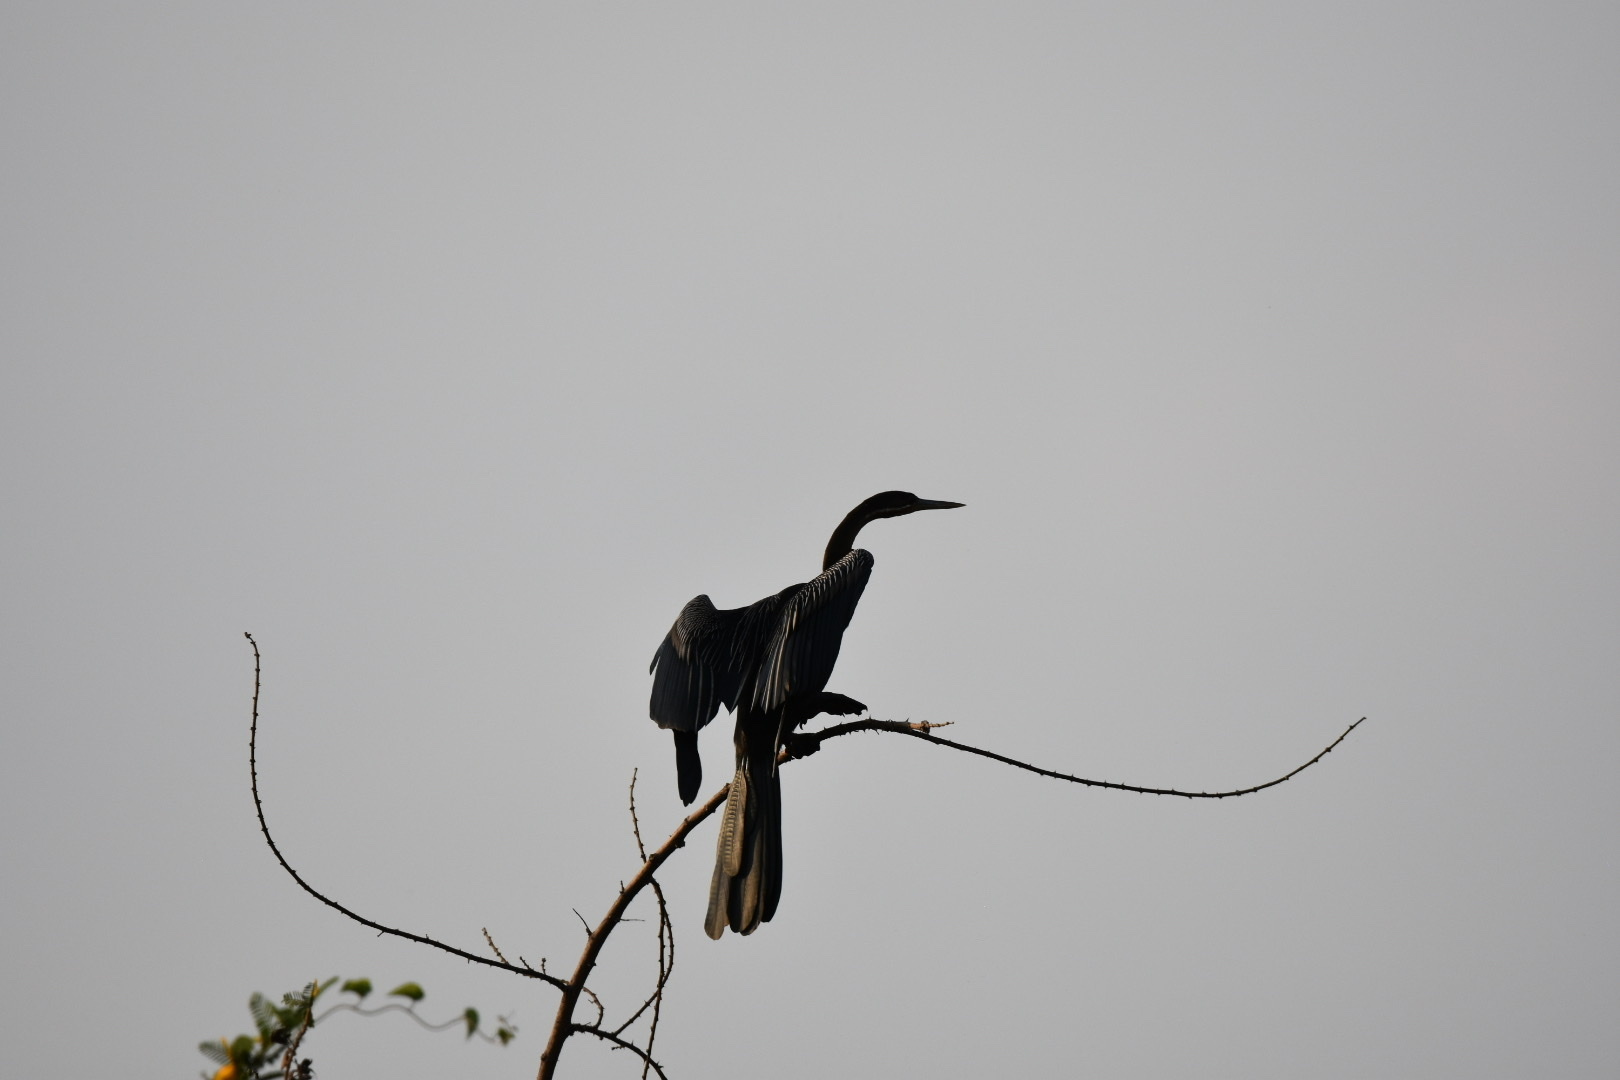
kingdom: Animalia
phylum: Chordata
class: Aves
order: Suliformes
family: Anhingidae
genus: Anhinga
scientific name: Anhinga rufa
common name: African darter
